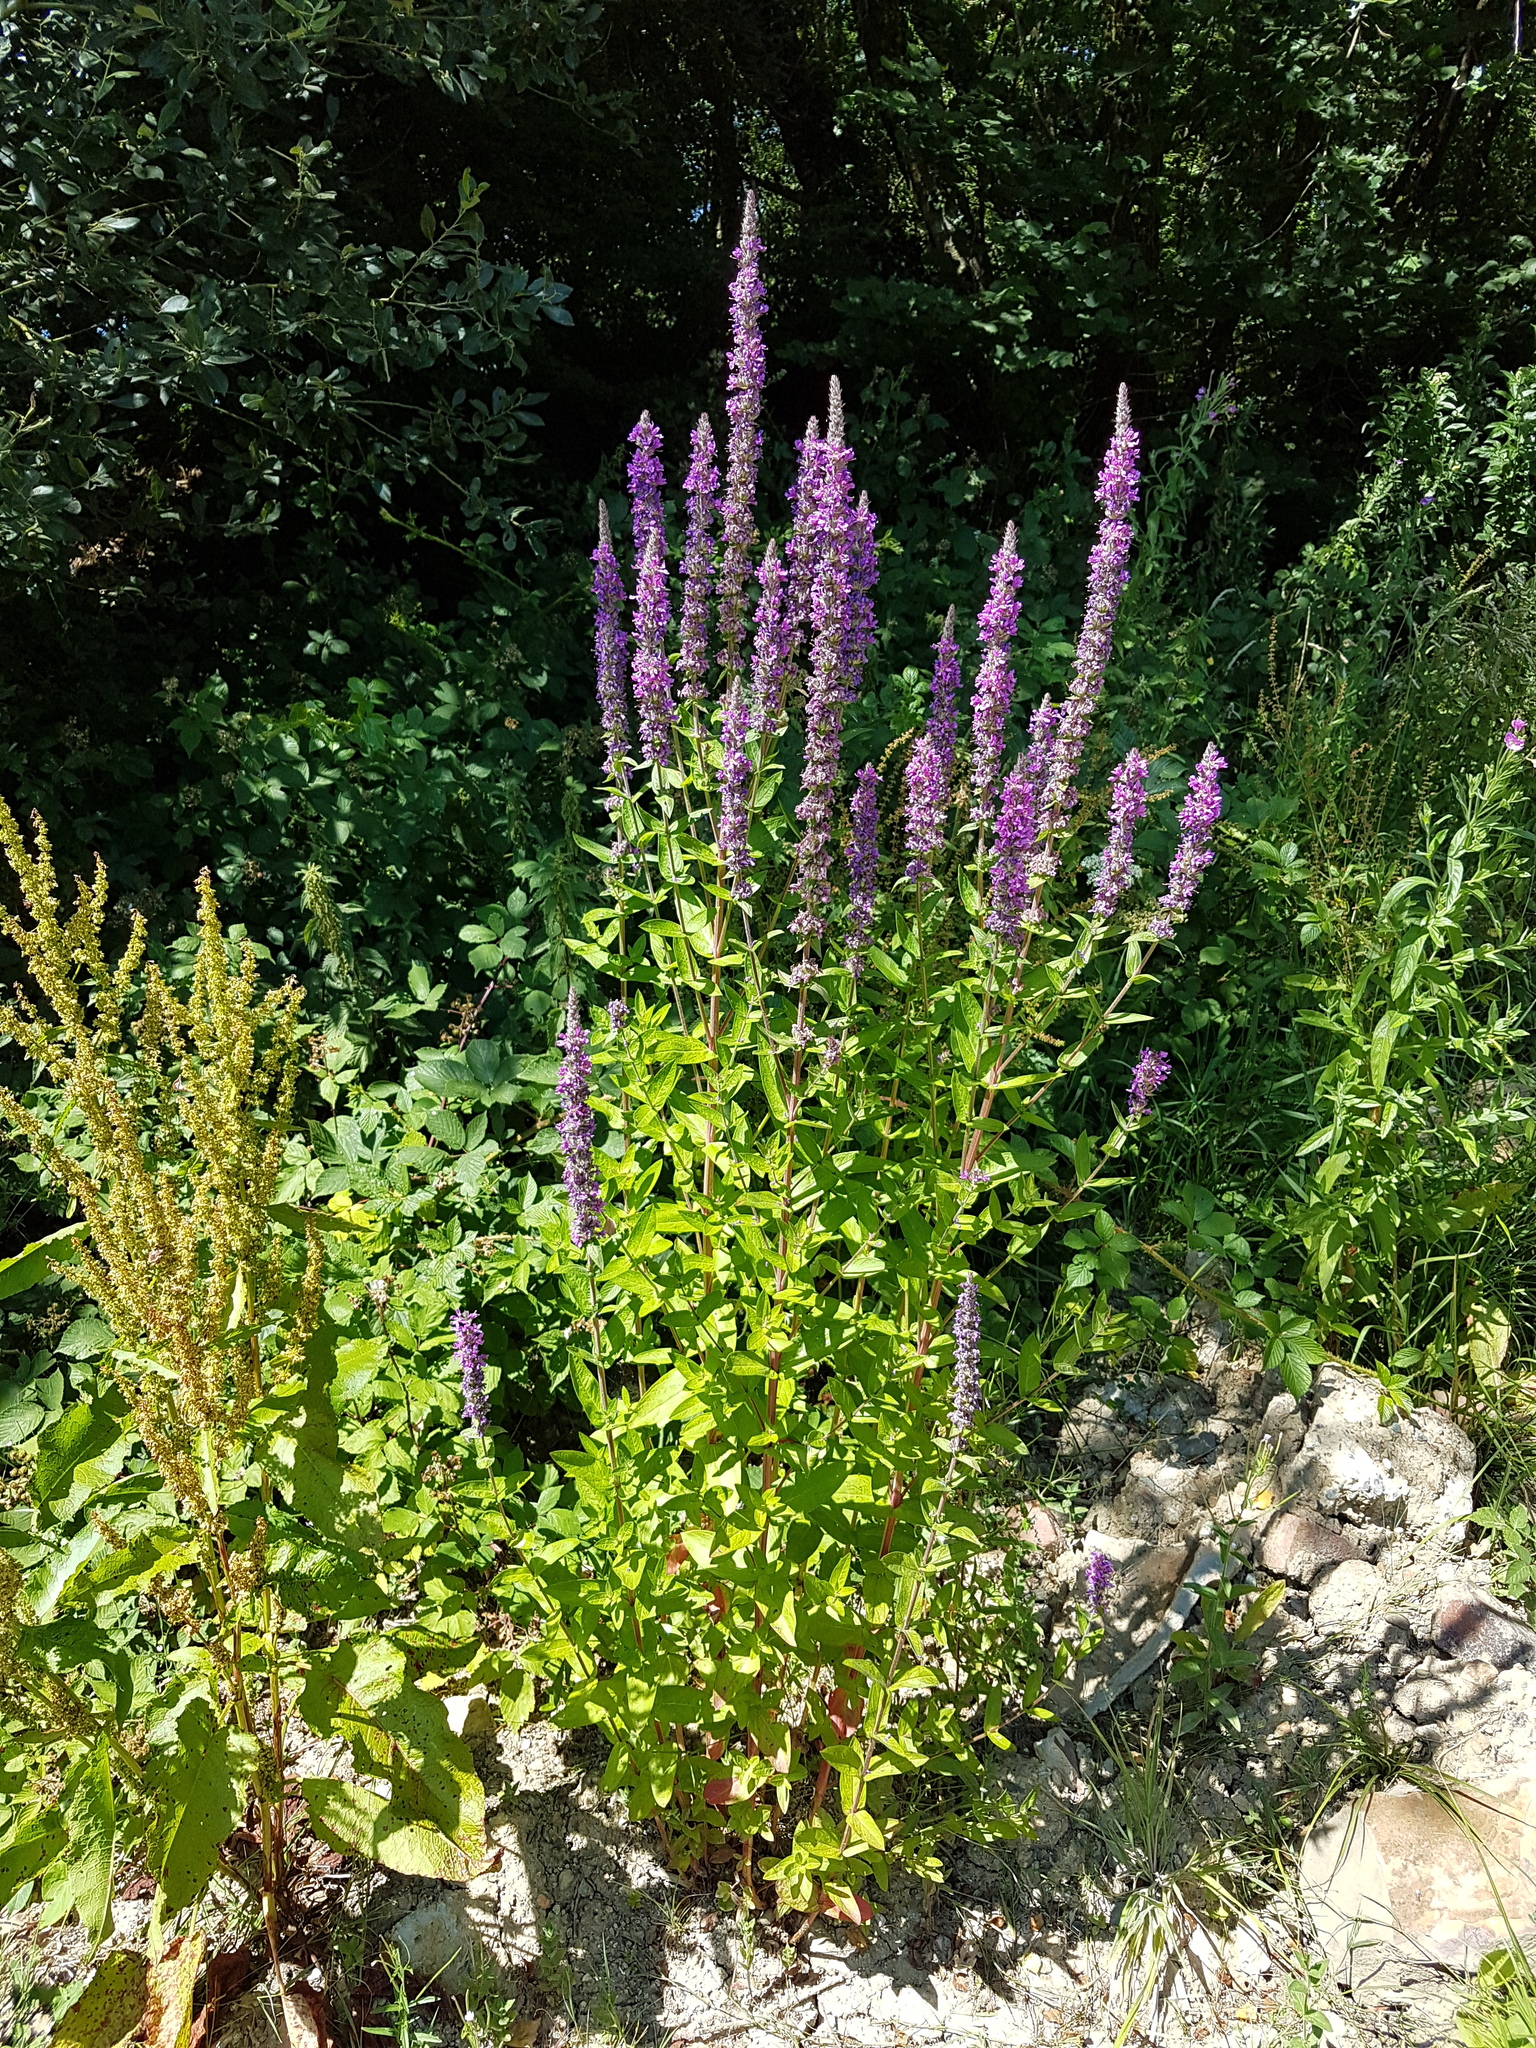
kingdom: Plantae
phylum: Tracheophyta
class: Magnoliopsida
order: Myrtales
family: Lythraceae
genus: Lythrum
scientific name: Lythrum salicaria
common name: Purple loosestrife
